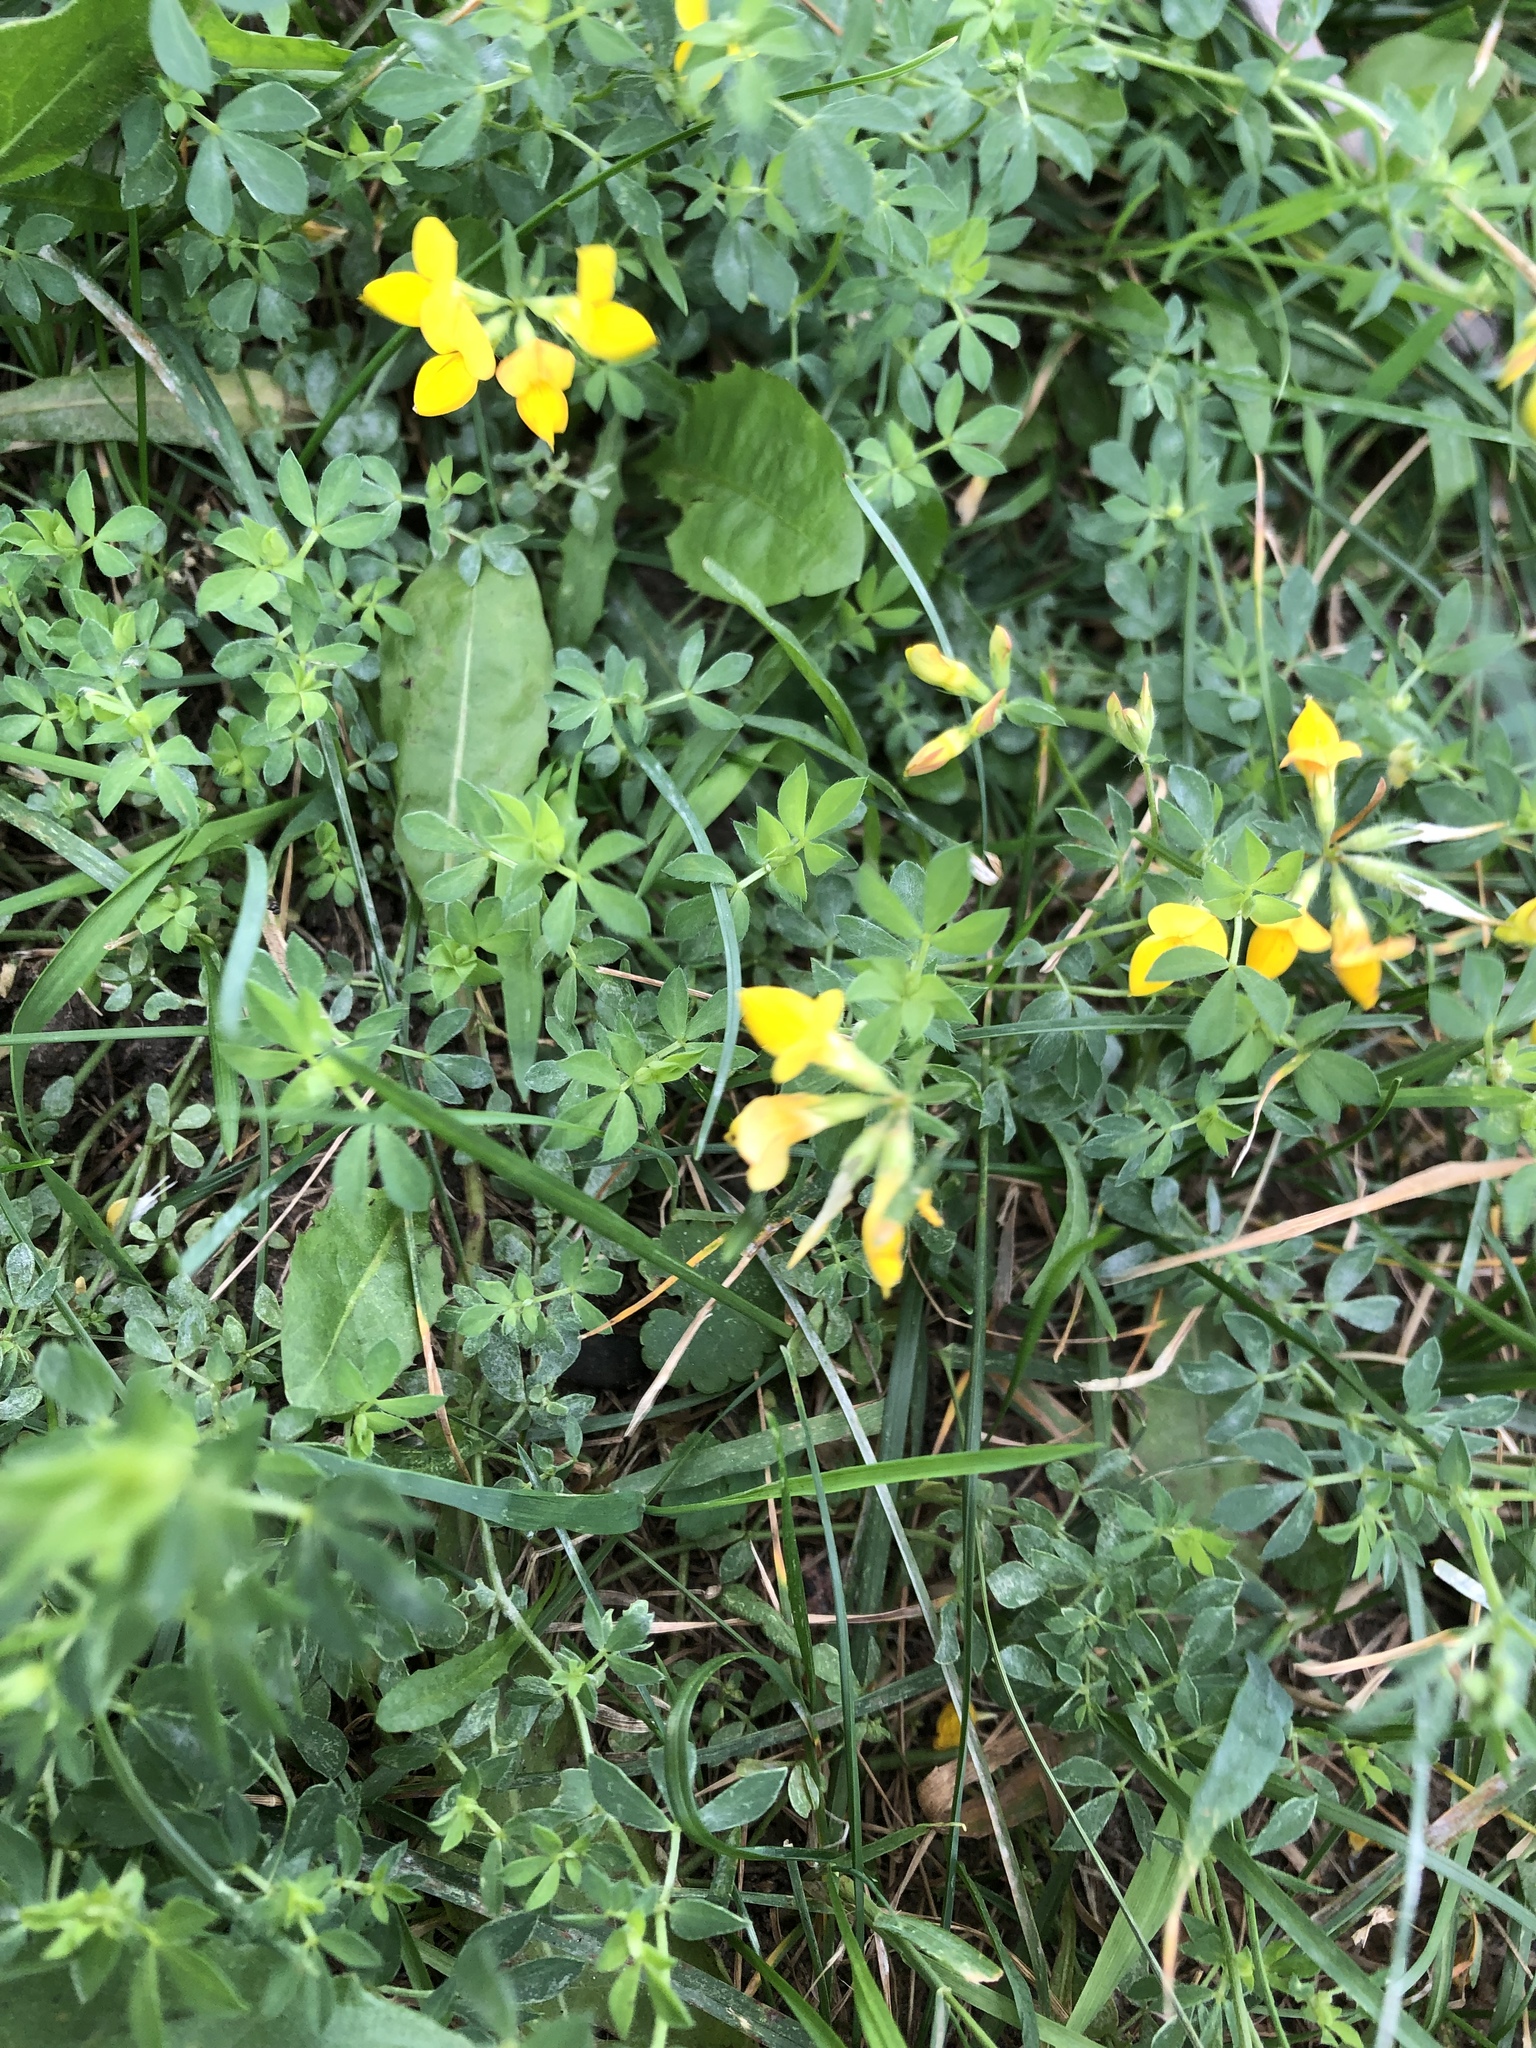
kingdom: Plantae
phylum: Tracheophyta
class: Magnoliopsida
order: Fabales
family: Fabaceae
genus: Lotus
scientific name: Lotus corniculatus
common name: Common bird's-foot-trefoil
